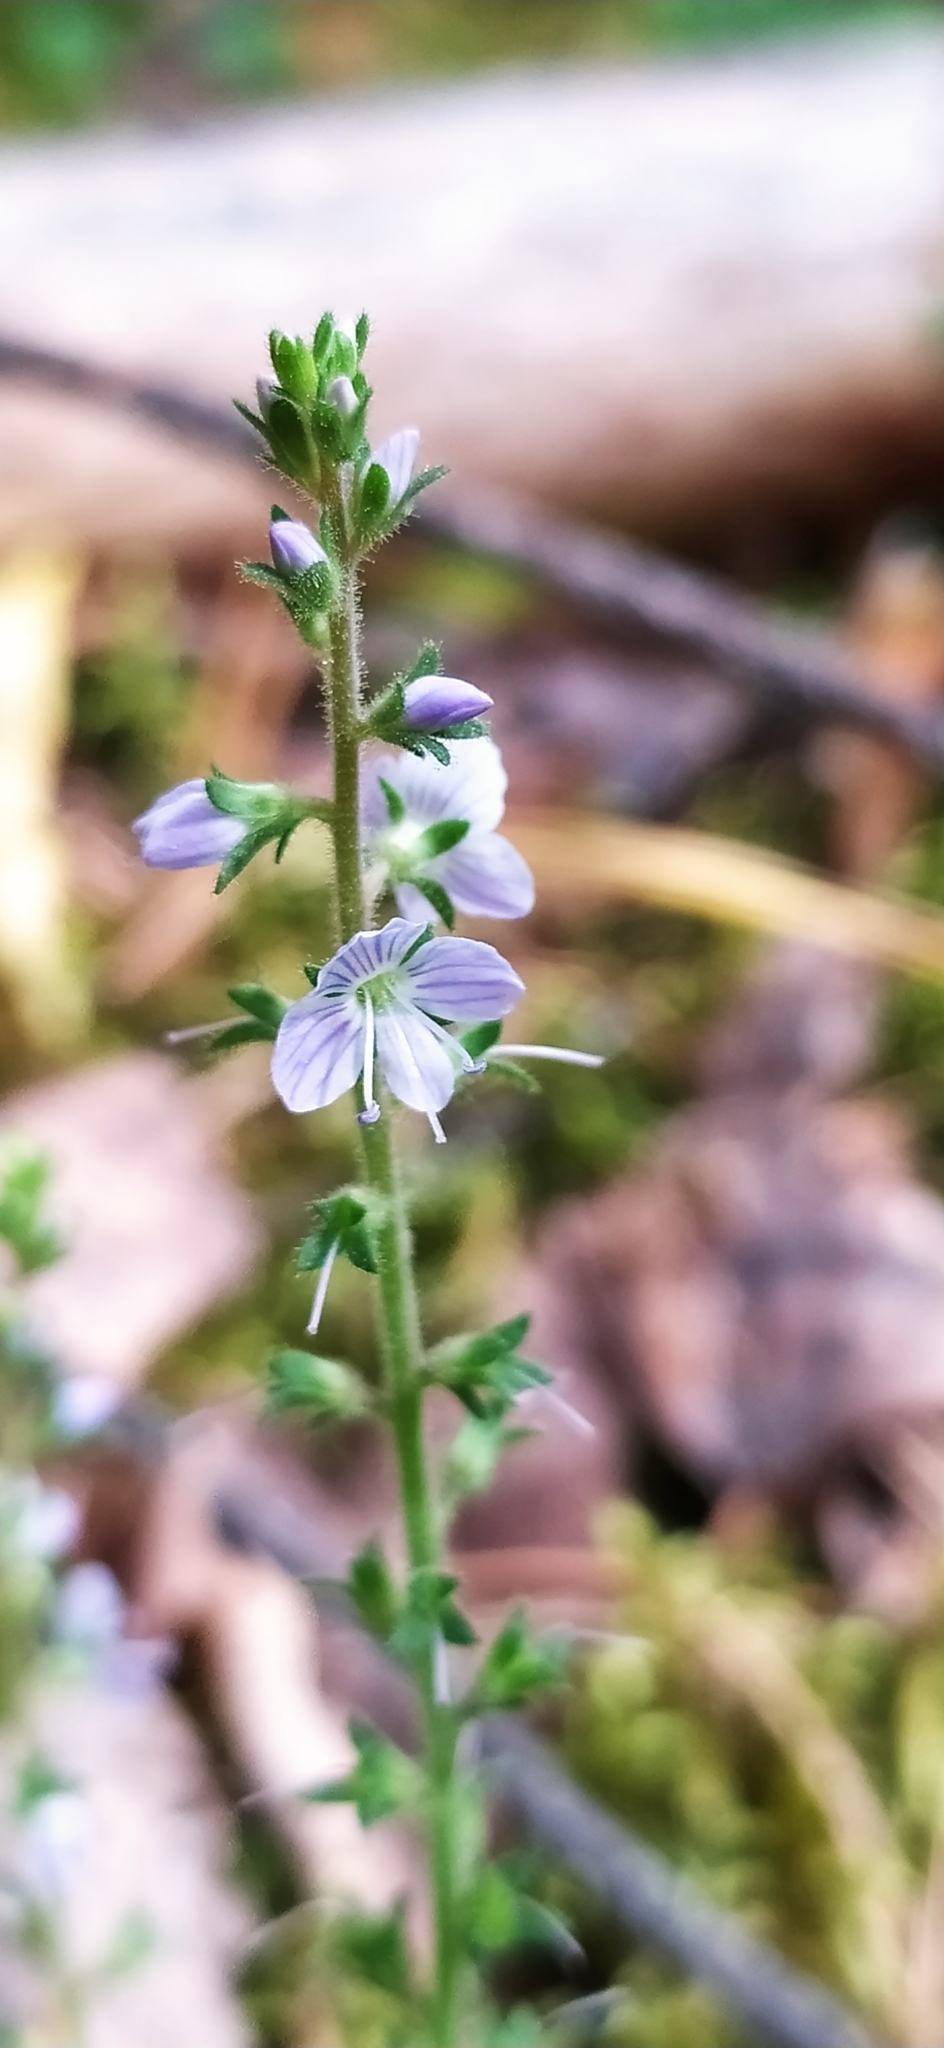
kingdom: Plantae
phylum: Tracheophyta
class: Magnoliopsida
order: Lamiales
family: Plantaginaceae
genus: Veronica
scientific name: Veronica officinalis
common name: Common speedwell
